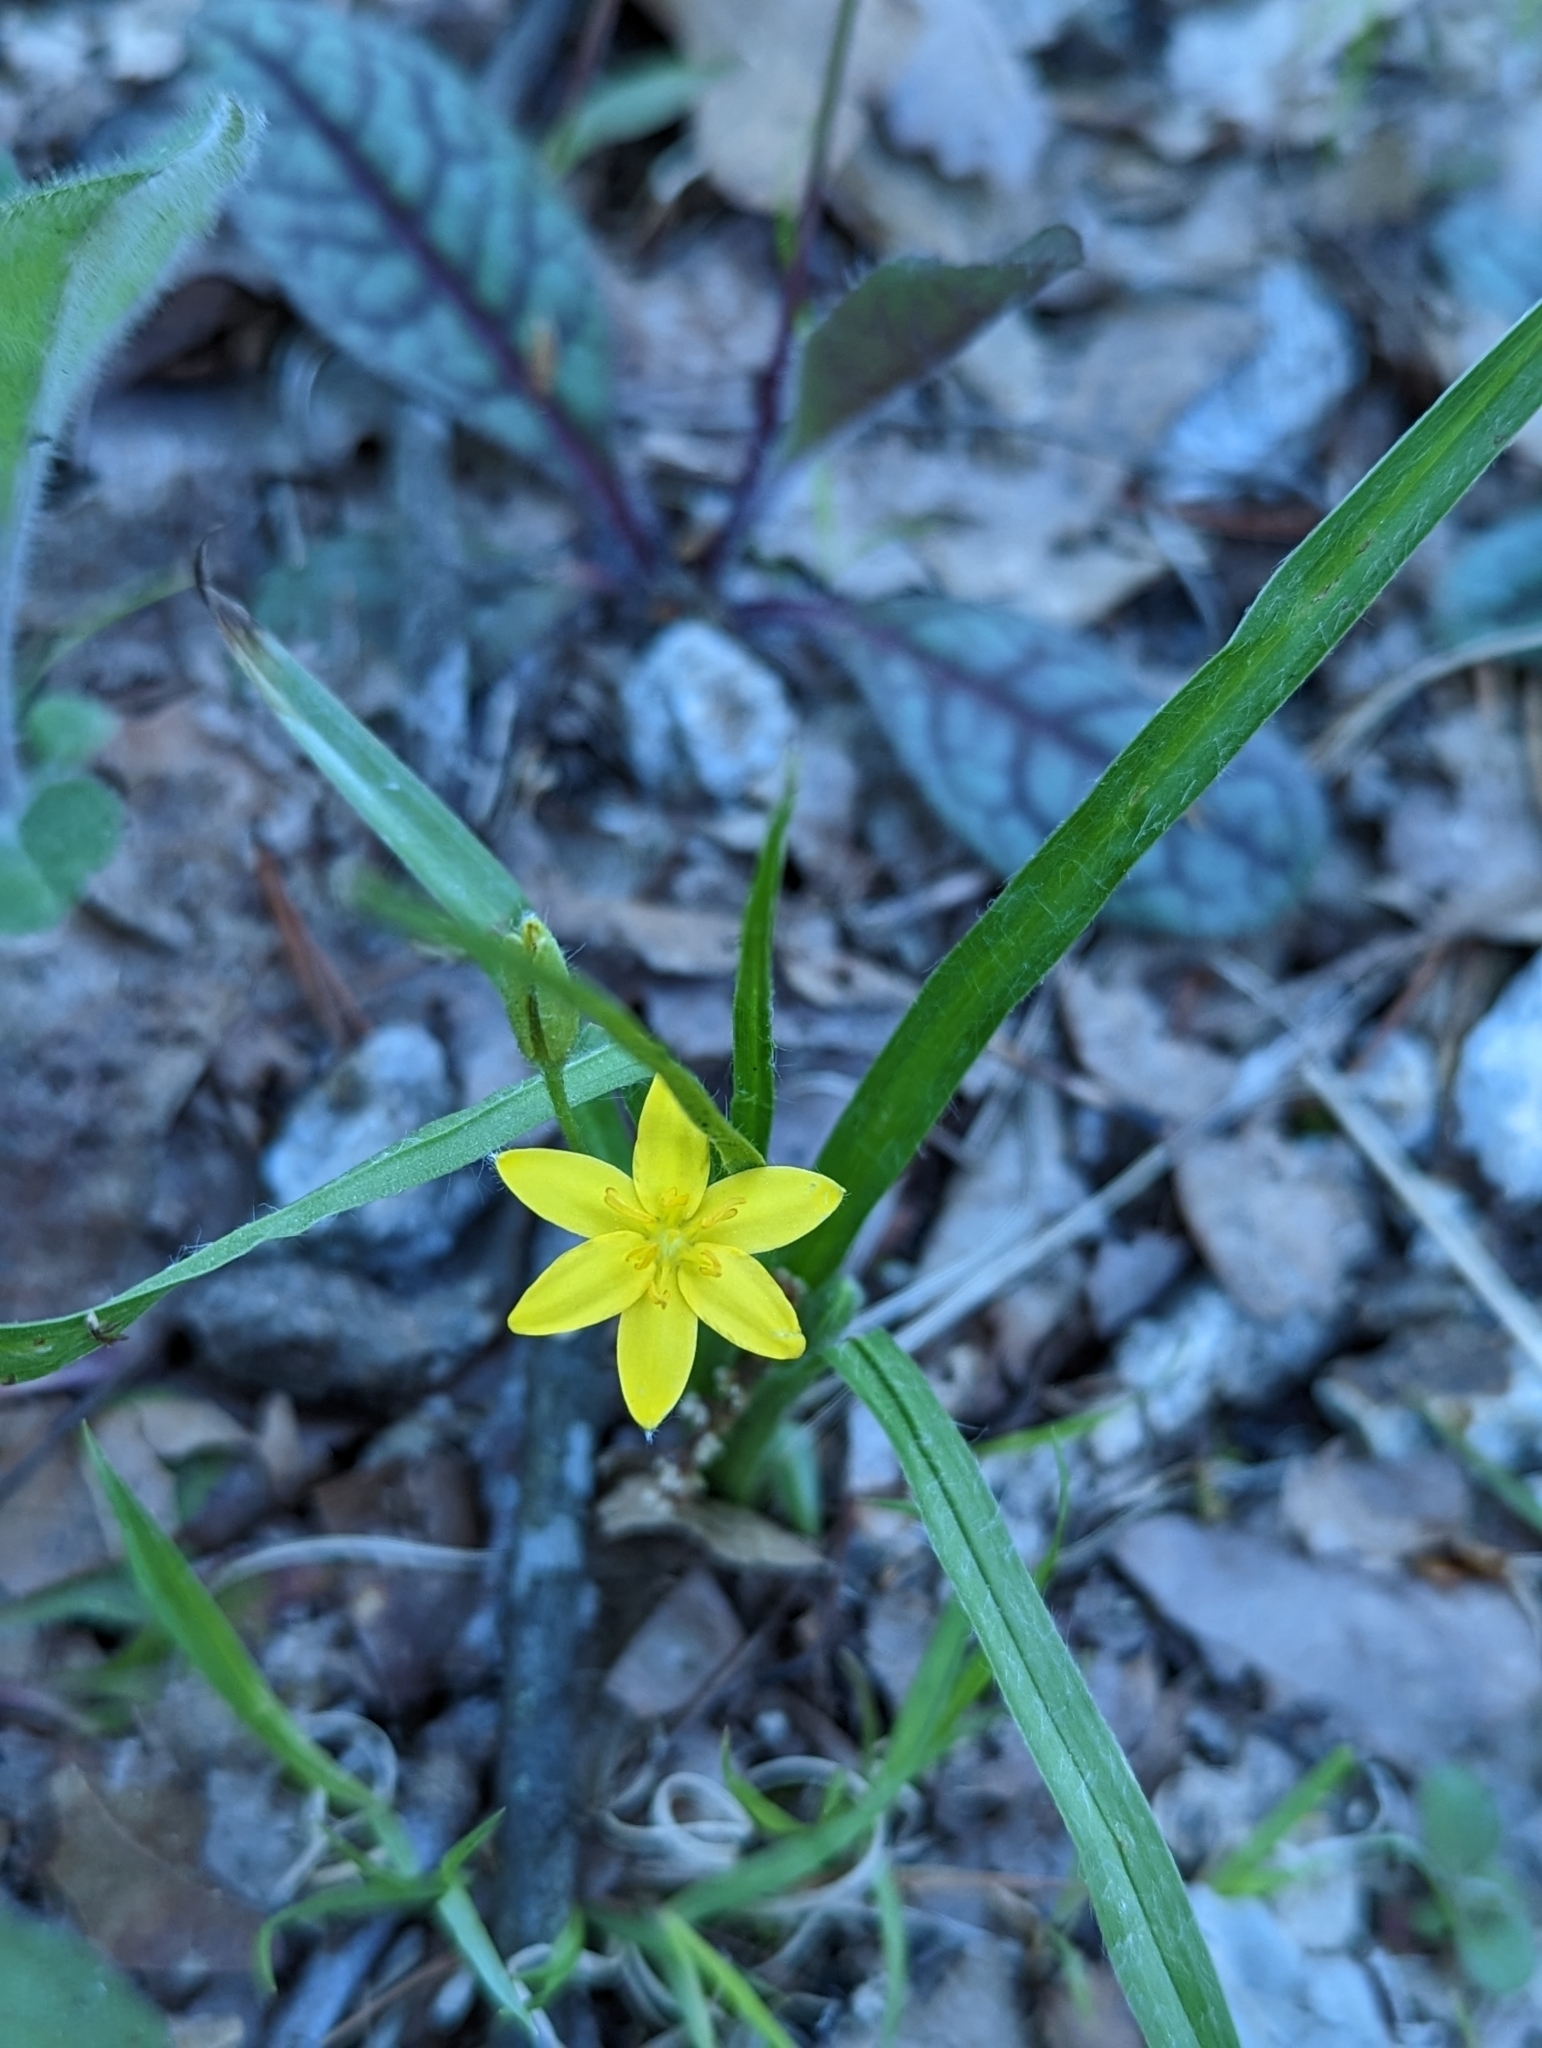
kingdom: Plantae
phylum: Tracheophyta
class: Liliopsida
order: Asparagales
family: Hypoxidaceae
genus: Hypoxis
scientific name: Hypoxis hirsuta
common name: Common goldstar
